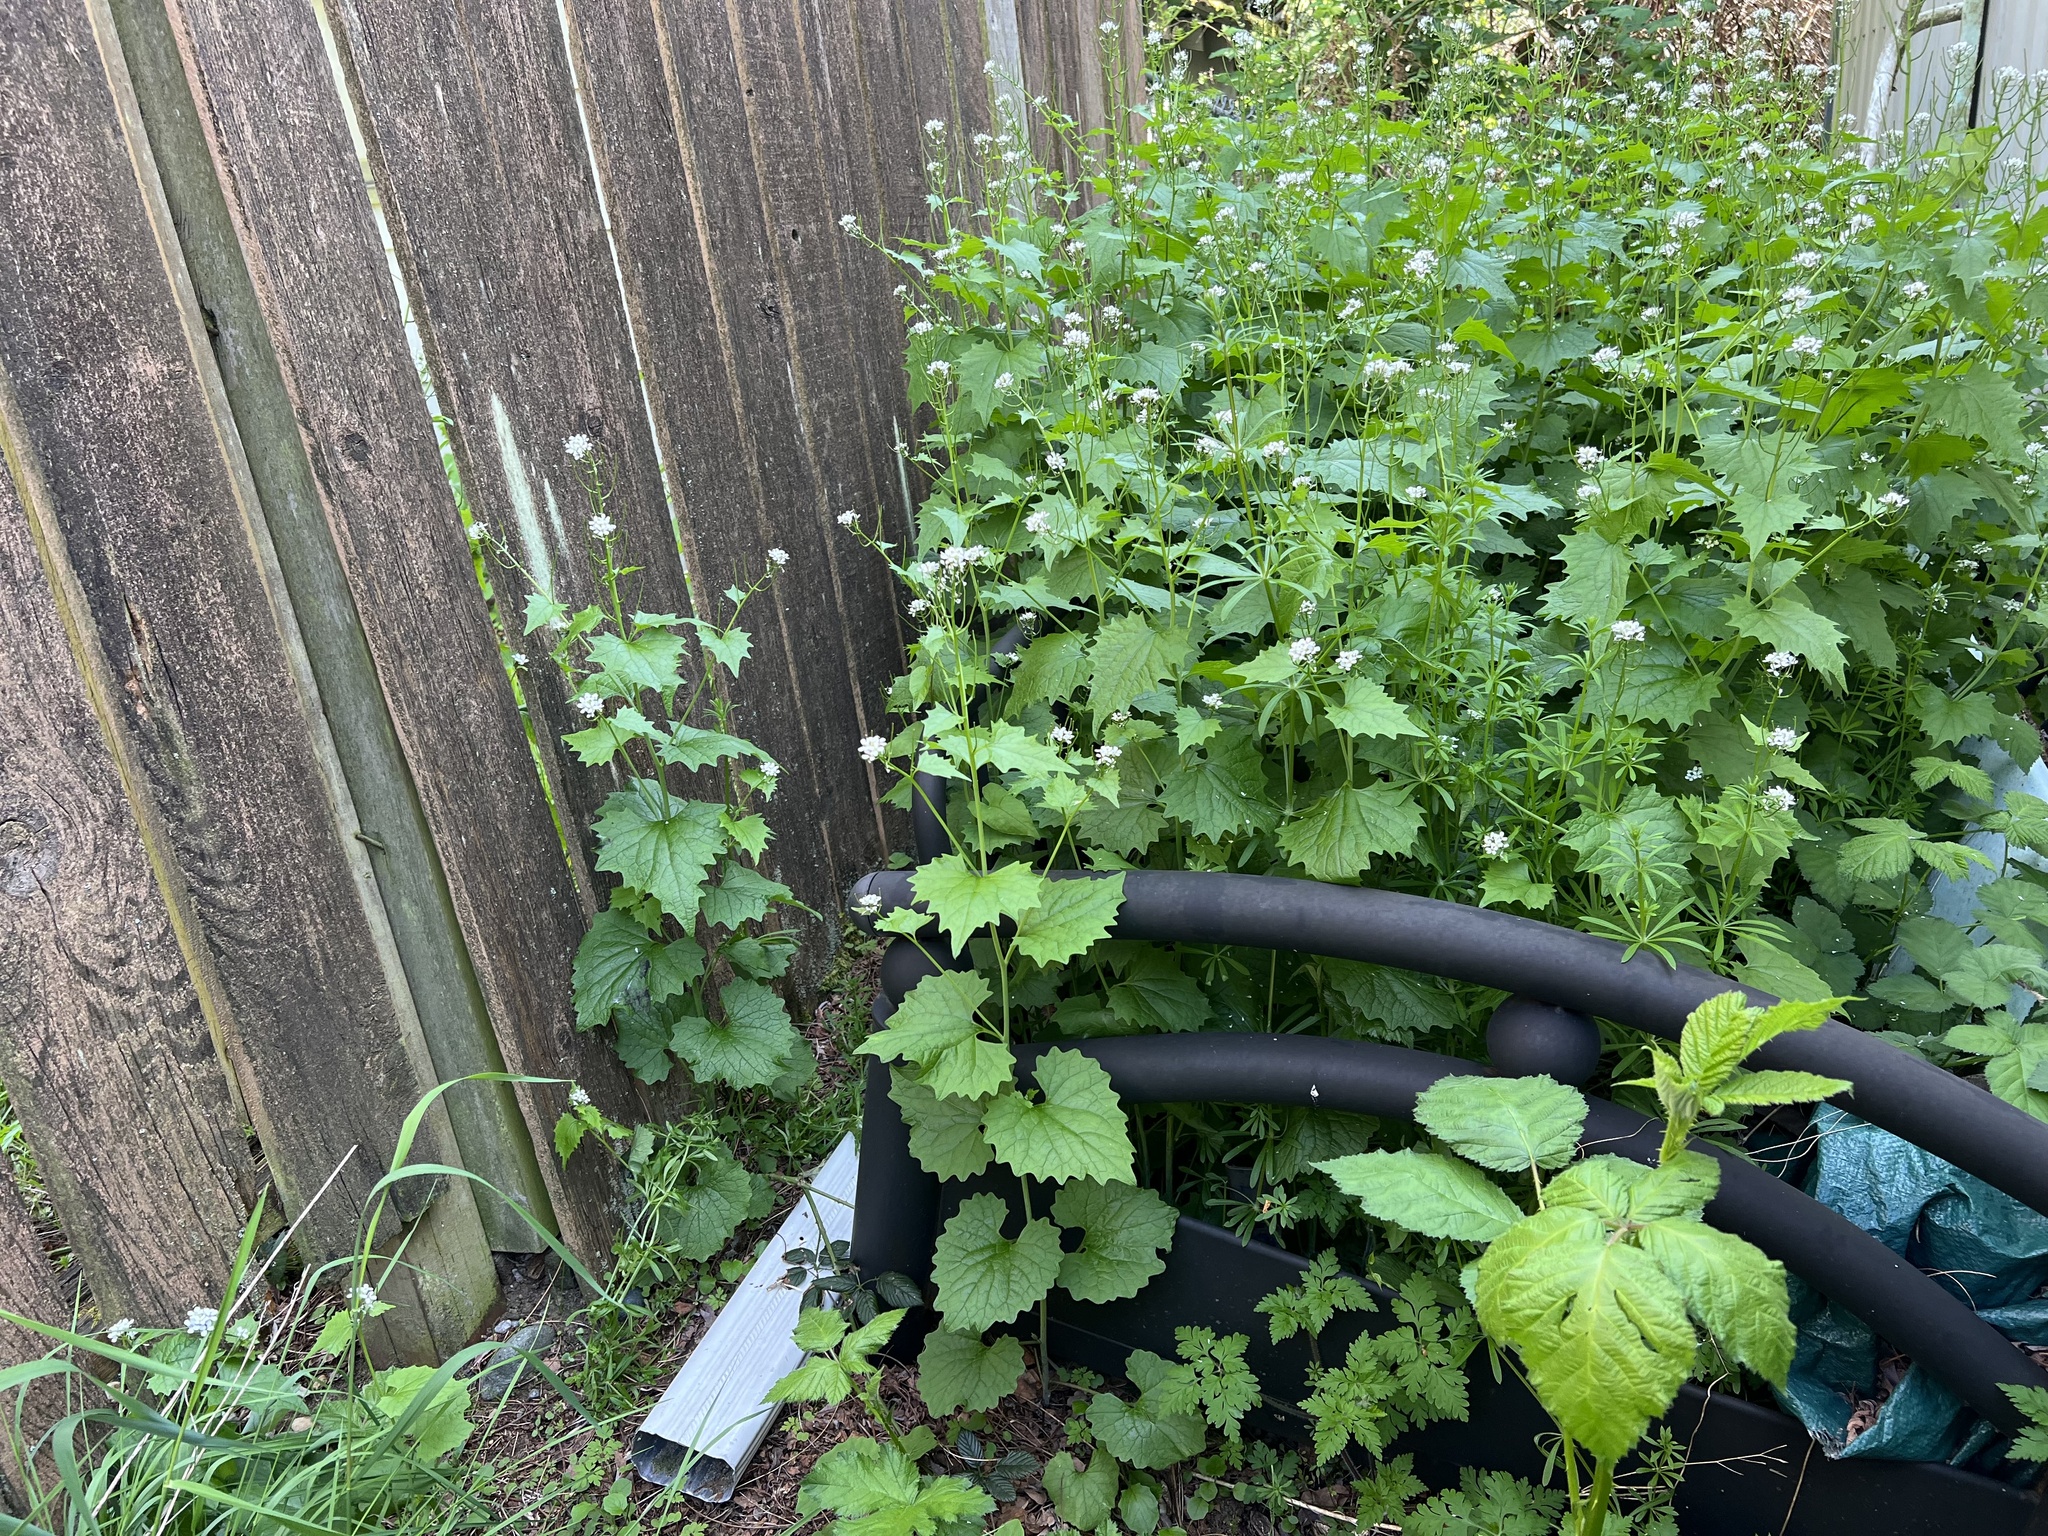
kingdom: Plantae
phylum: Tracheophyta
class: Magnoliopsida
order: Brassicales
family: Brassicaceae
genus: Alliaria
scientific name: Alliaria petiolata
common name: Garlic mustard
